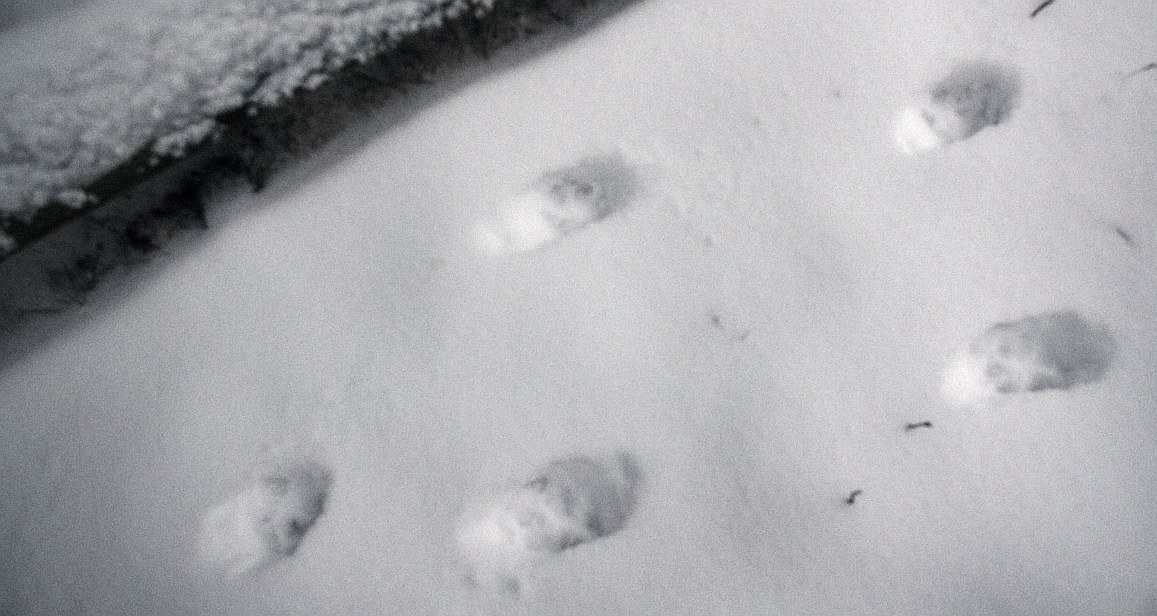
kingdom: Animalia
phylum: Chordata
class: Mammalia
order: Carnivora
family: Canidae
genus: Vulpes
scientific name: Vulpes vulpes
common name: Red fox
